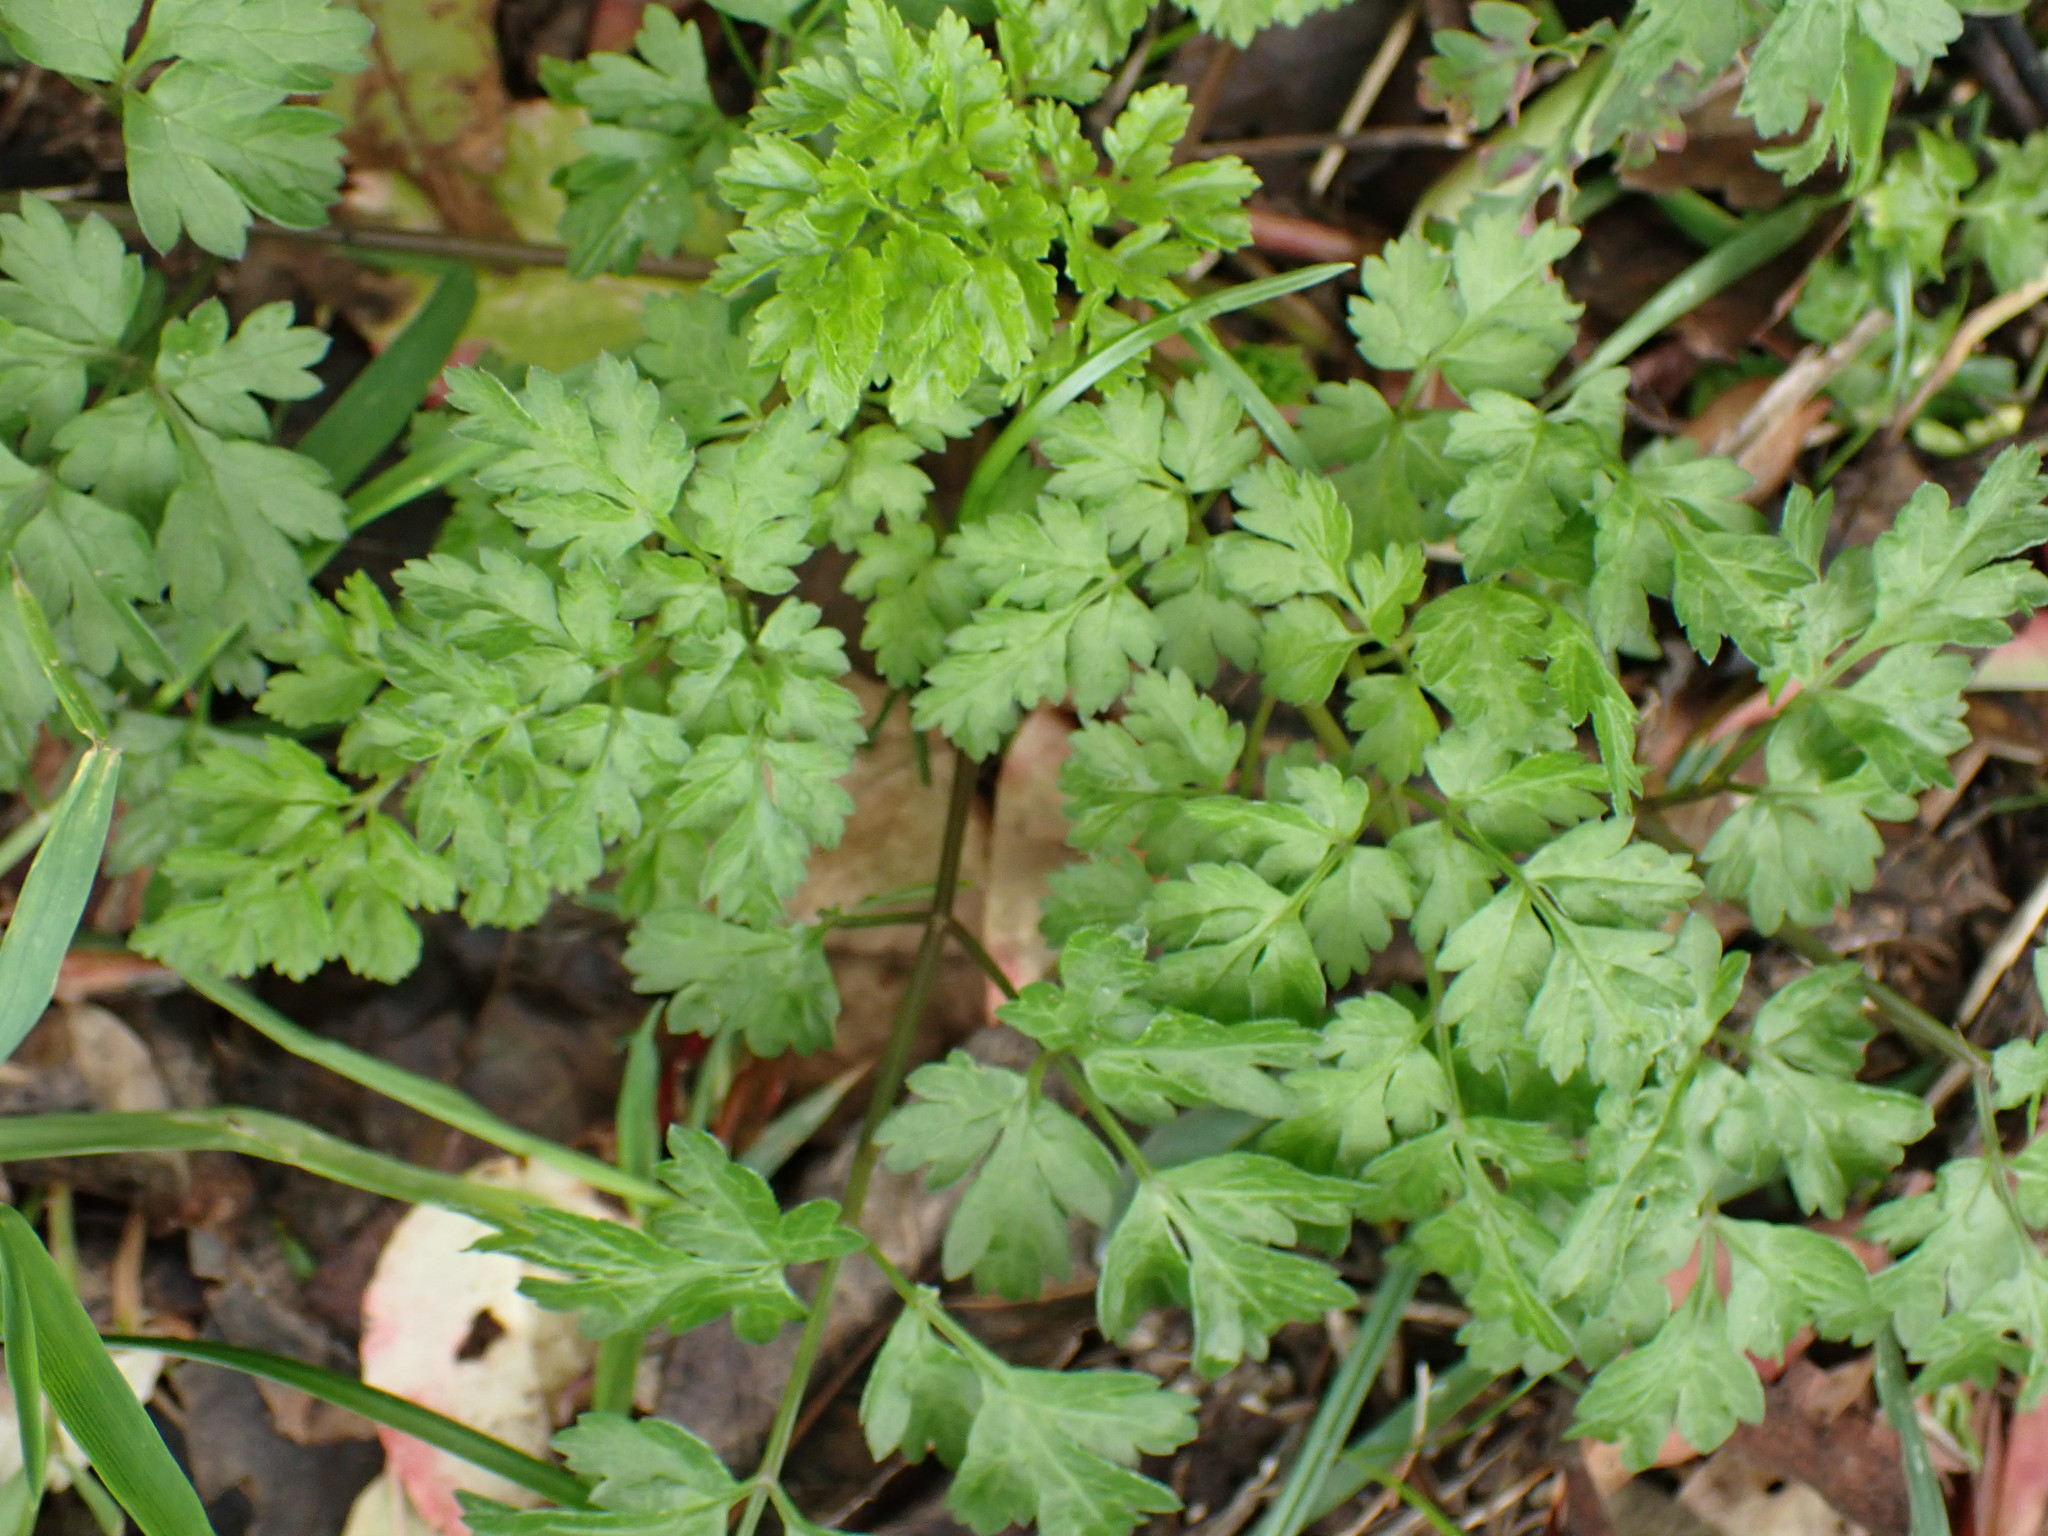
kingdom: Plantae
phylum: Tracheophyta
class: Magnoliopsida
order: Apiales
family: Apiaceae
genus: Anthriscus
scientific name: Anthriscus sylvestris
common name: Cow parsley
